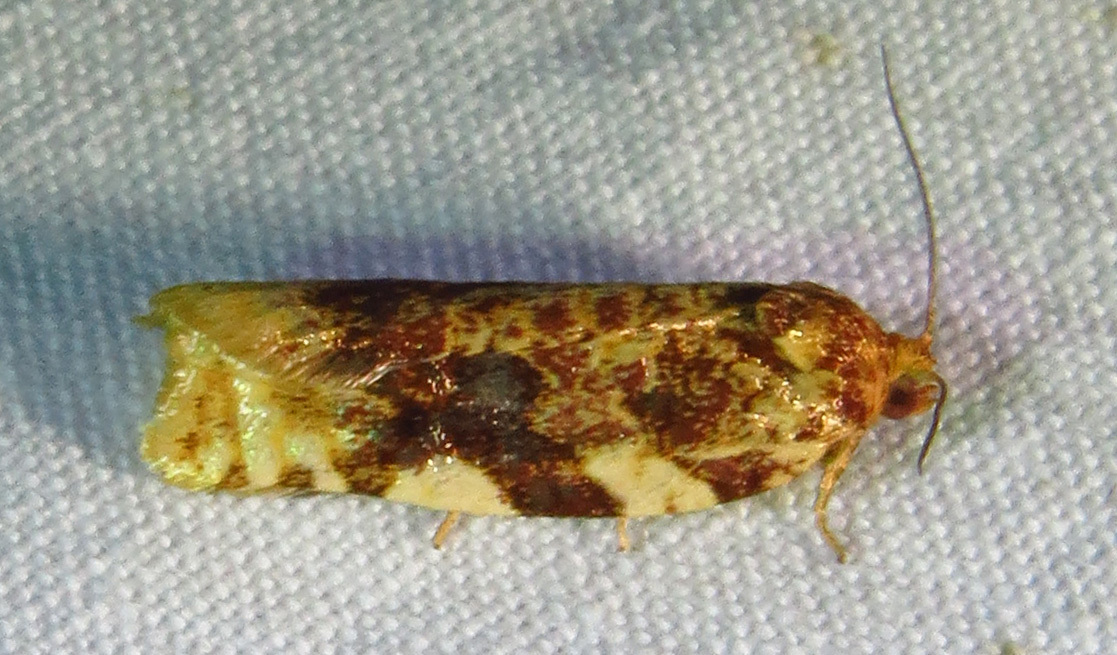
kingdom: Animalia
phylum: Arthropoda
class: Insecta
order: Lepidoptera
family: Tortricidae
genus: Archips
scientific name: Archips argyrospila
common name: Fruit-tree leafroller moth
